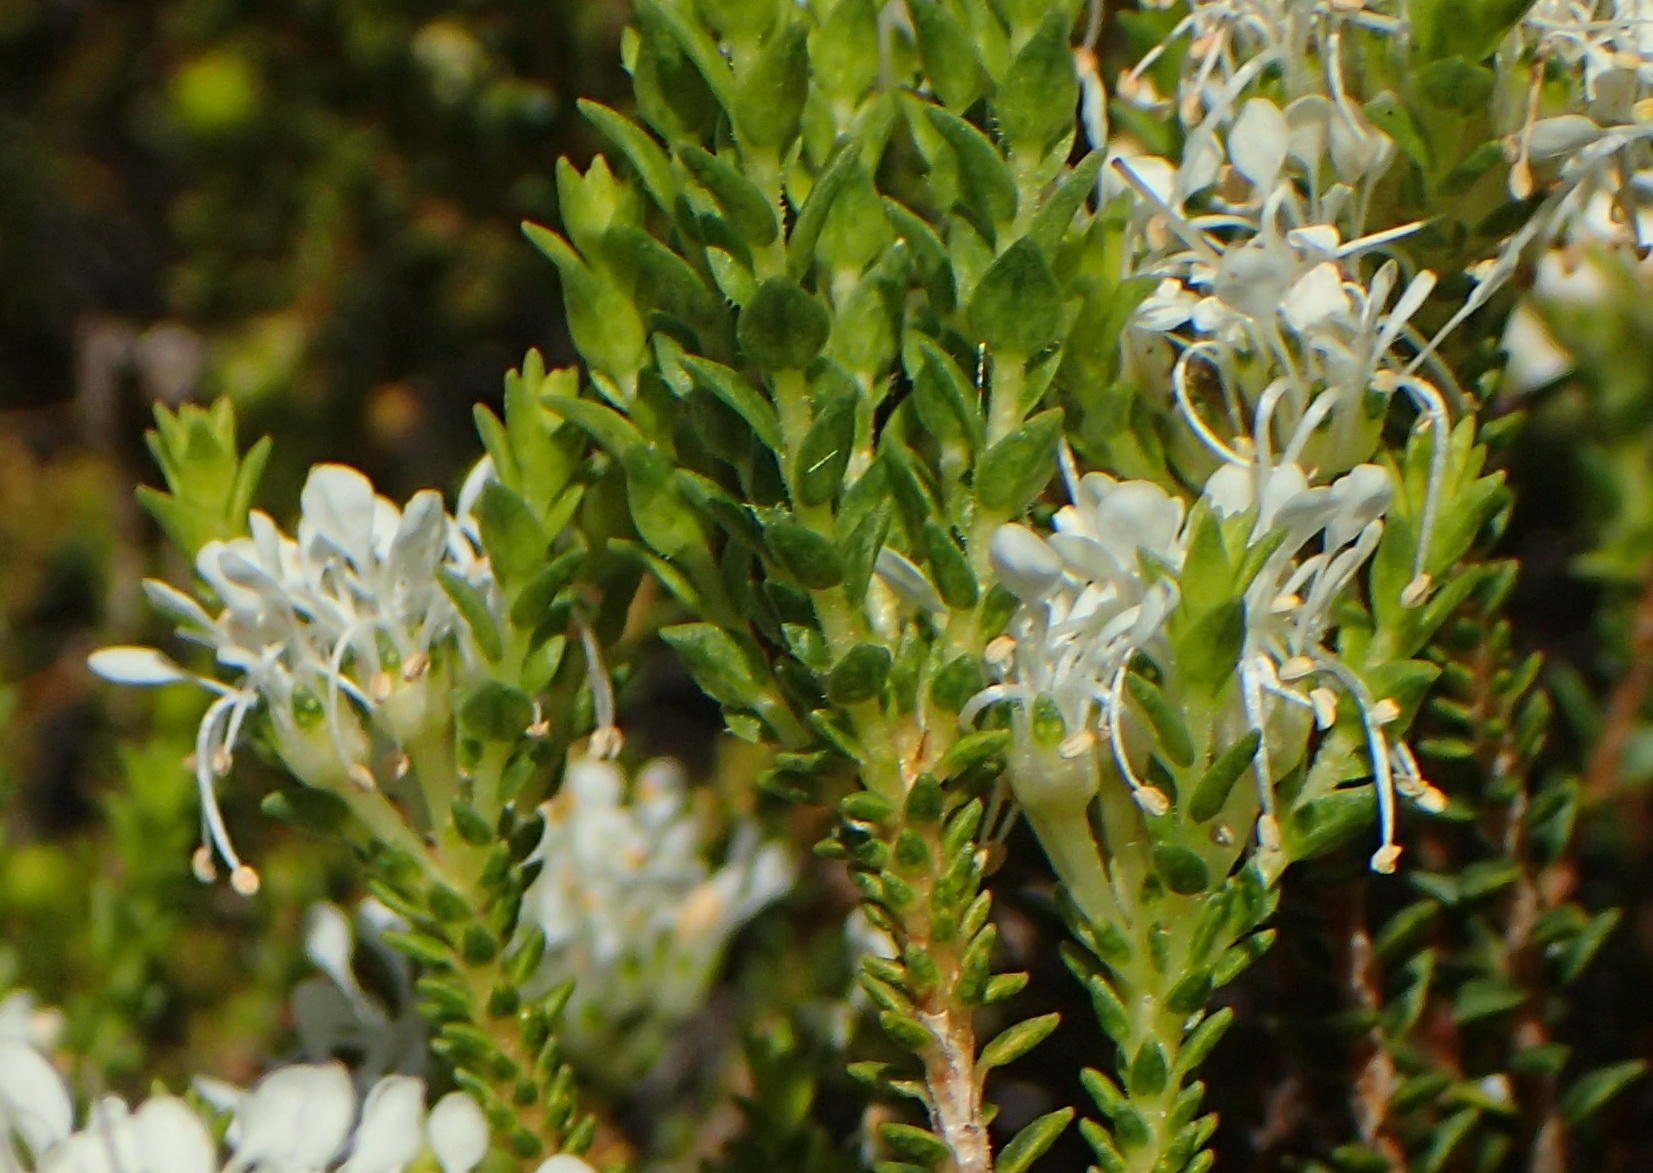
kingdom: Plantae
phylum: Tracheophyta
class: Magnoliopsida
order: Sapindales
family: Rutaceae
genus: Agathosma
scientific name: Agathosma apiculata
